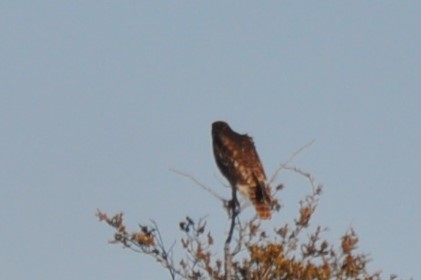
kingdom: Animalia
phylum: Chordata
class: Aves
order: Accipitriformes
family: Accipitridae
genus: Buteo
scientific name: Buteo jamaicensis
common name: Red-tailed hawk
